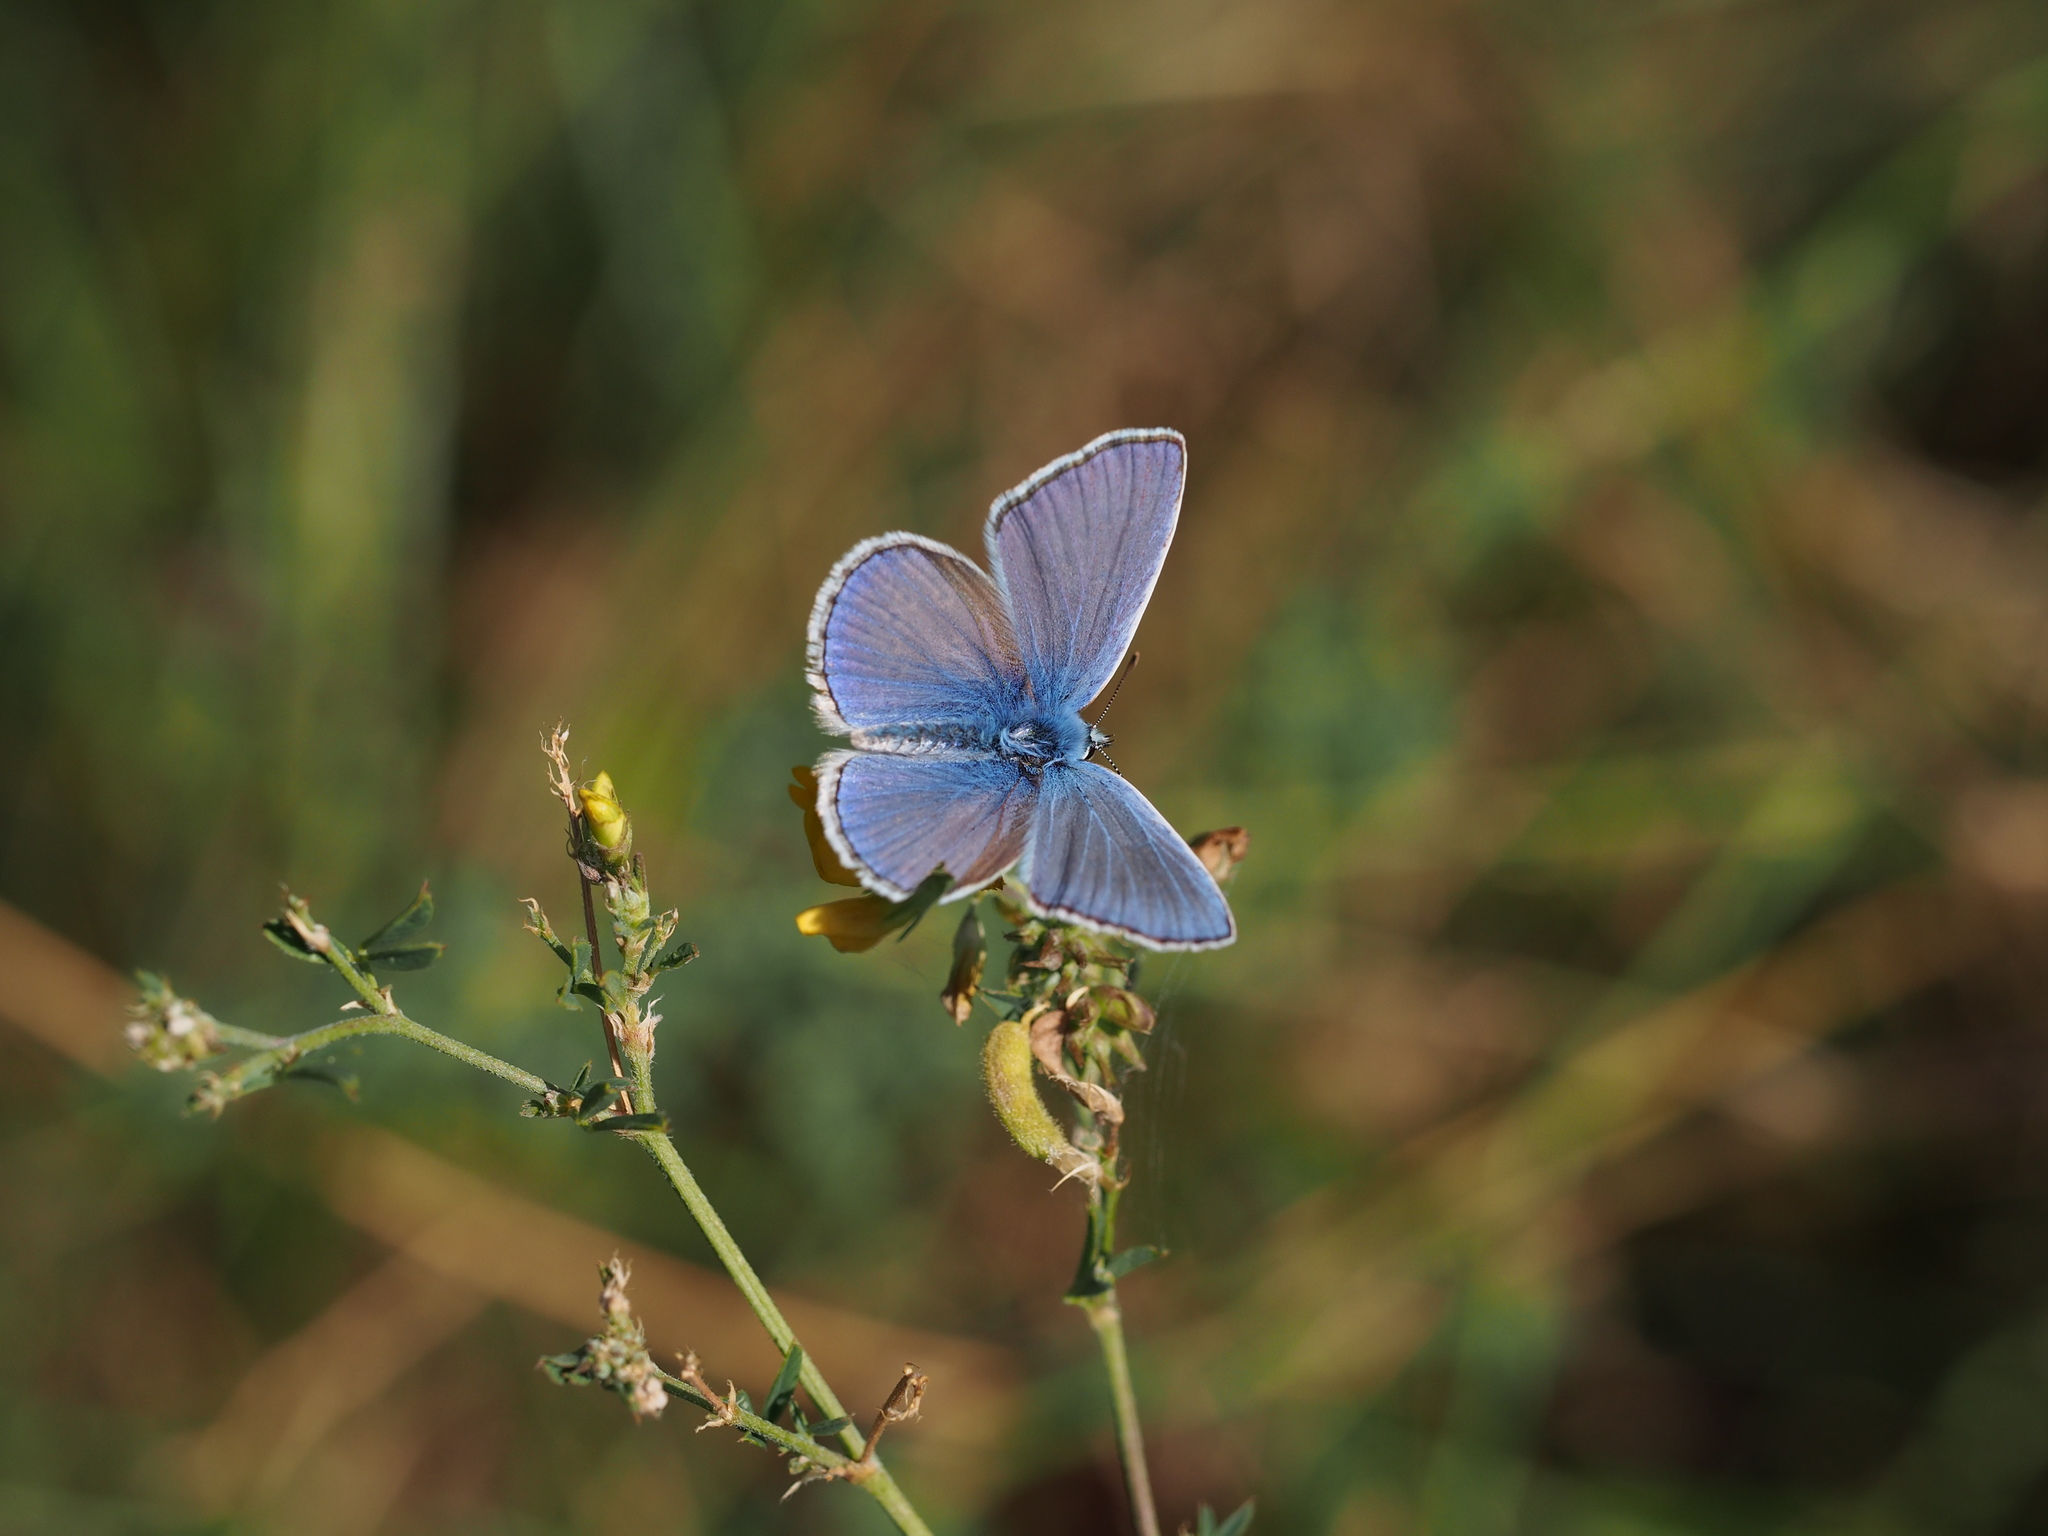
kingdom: Animalia
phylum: Arthropoda
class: Insecta
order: Lepidoptera
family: Lycaenidae
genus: Polyommatus
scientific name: Polyommatus icarus
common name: Common blue
